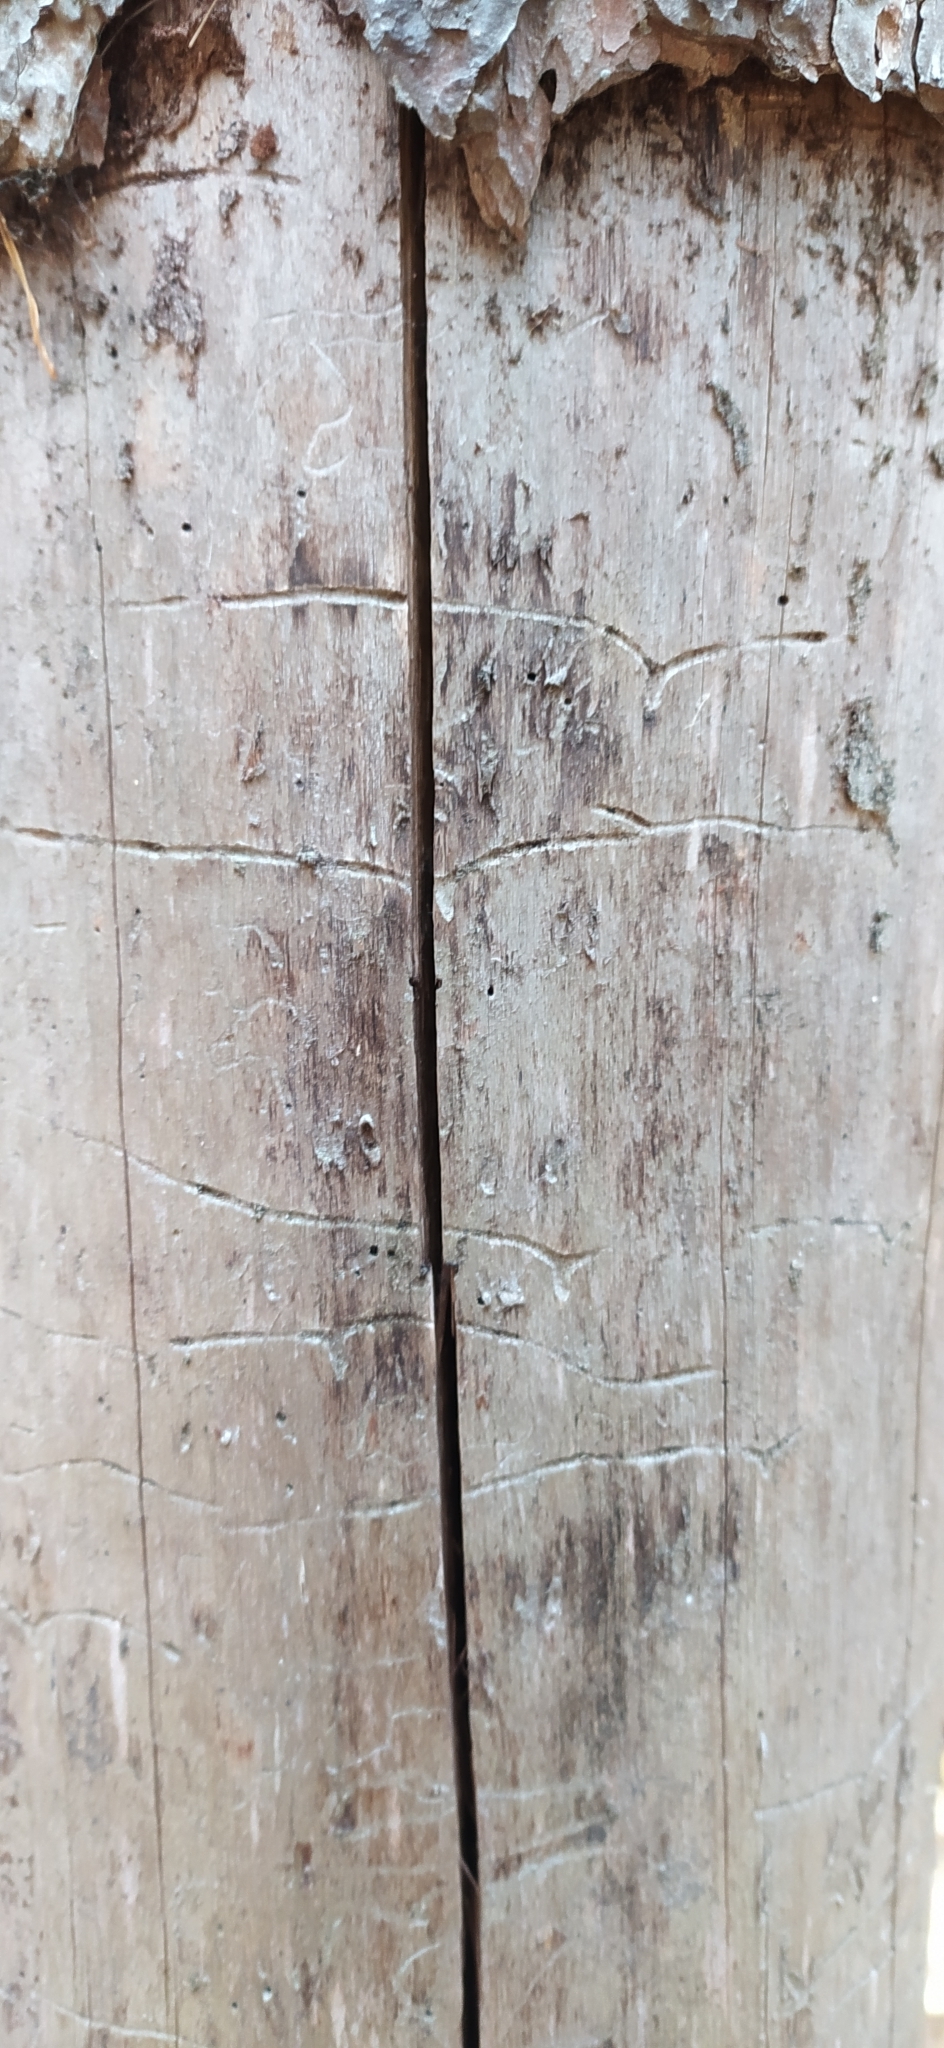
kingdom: Animalia
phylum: Arthropoda
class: Insecta
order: Coleoptera
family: Curculionidae
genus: Tomicus
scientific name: Tomicus minor
